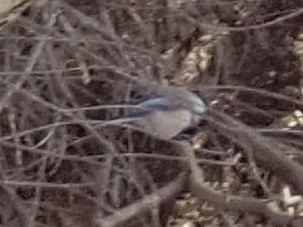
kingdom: Animalia
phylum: Chordata
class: Aves
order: Passeriformes
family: Paridae
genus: Poecile
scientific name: Poecile atricapillus
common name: Black-capped chickadee
